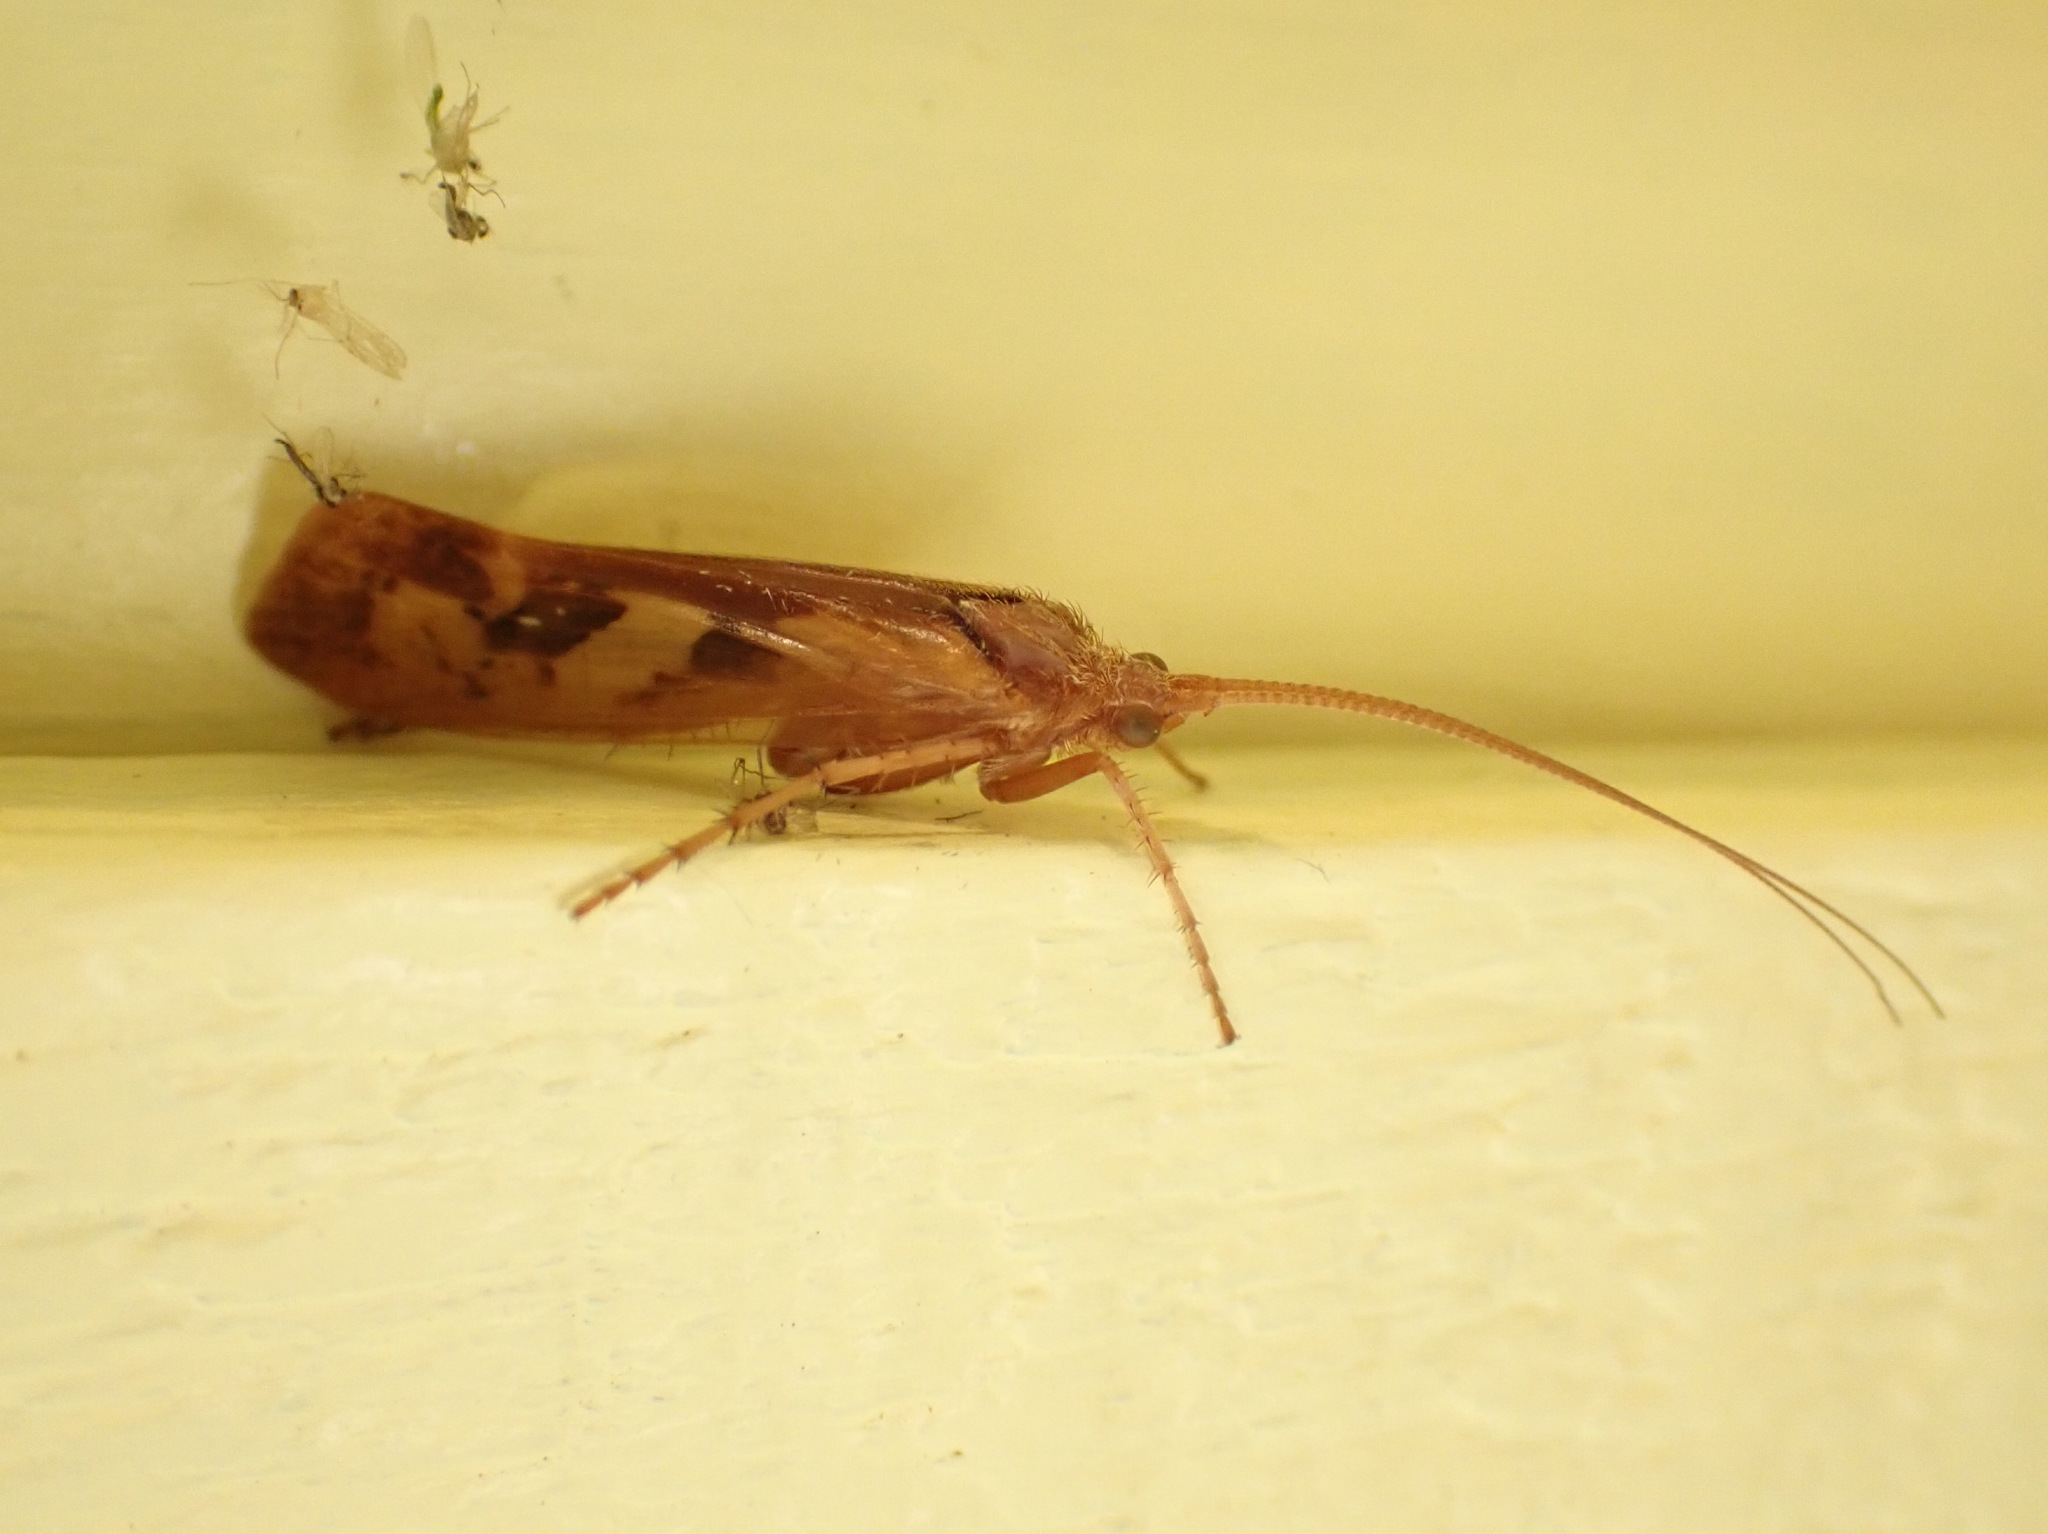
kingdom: Animalia
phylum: Arthropoda
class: Insecta
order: Trichoptera
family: Limnephilidae
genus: Limnephilus
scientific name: Limnephilus rhombicus
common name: Diamond northern caddisfly
